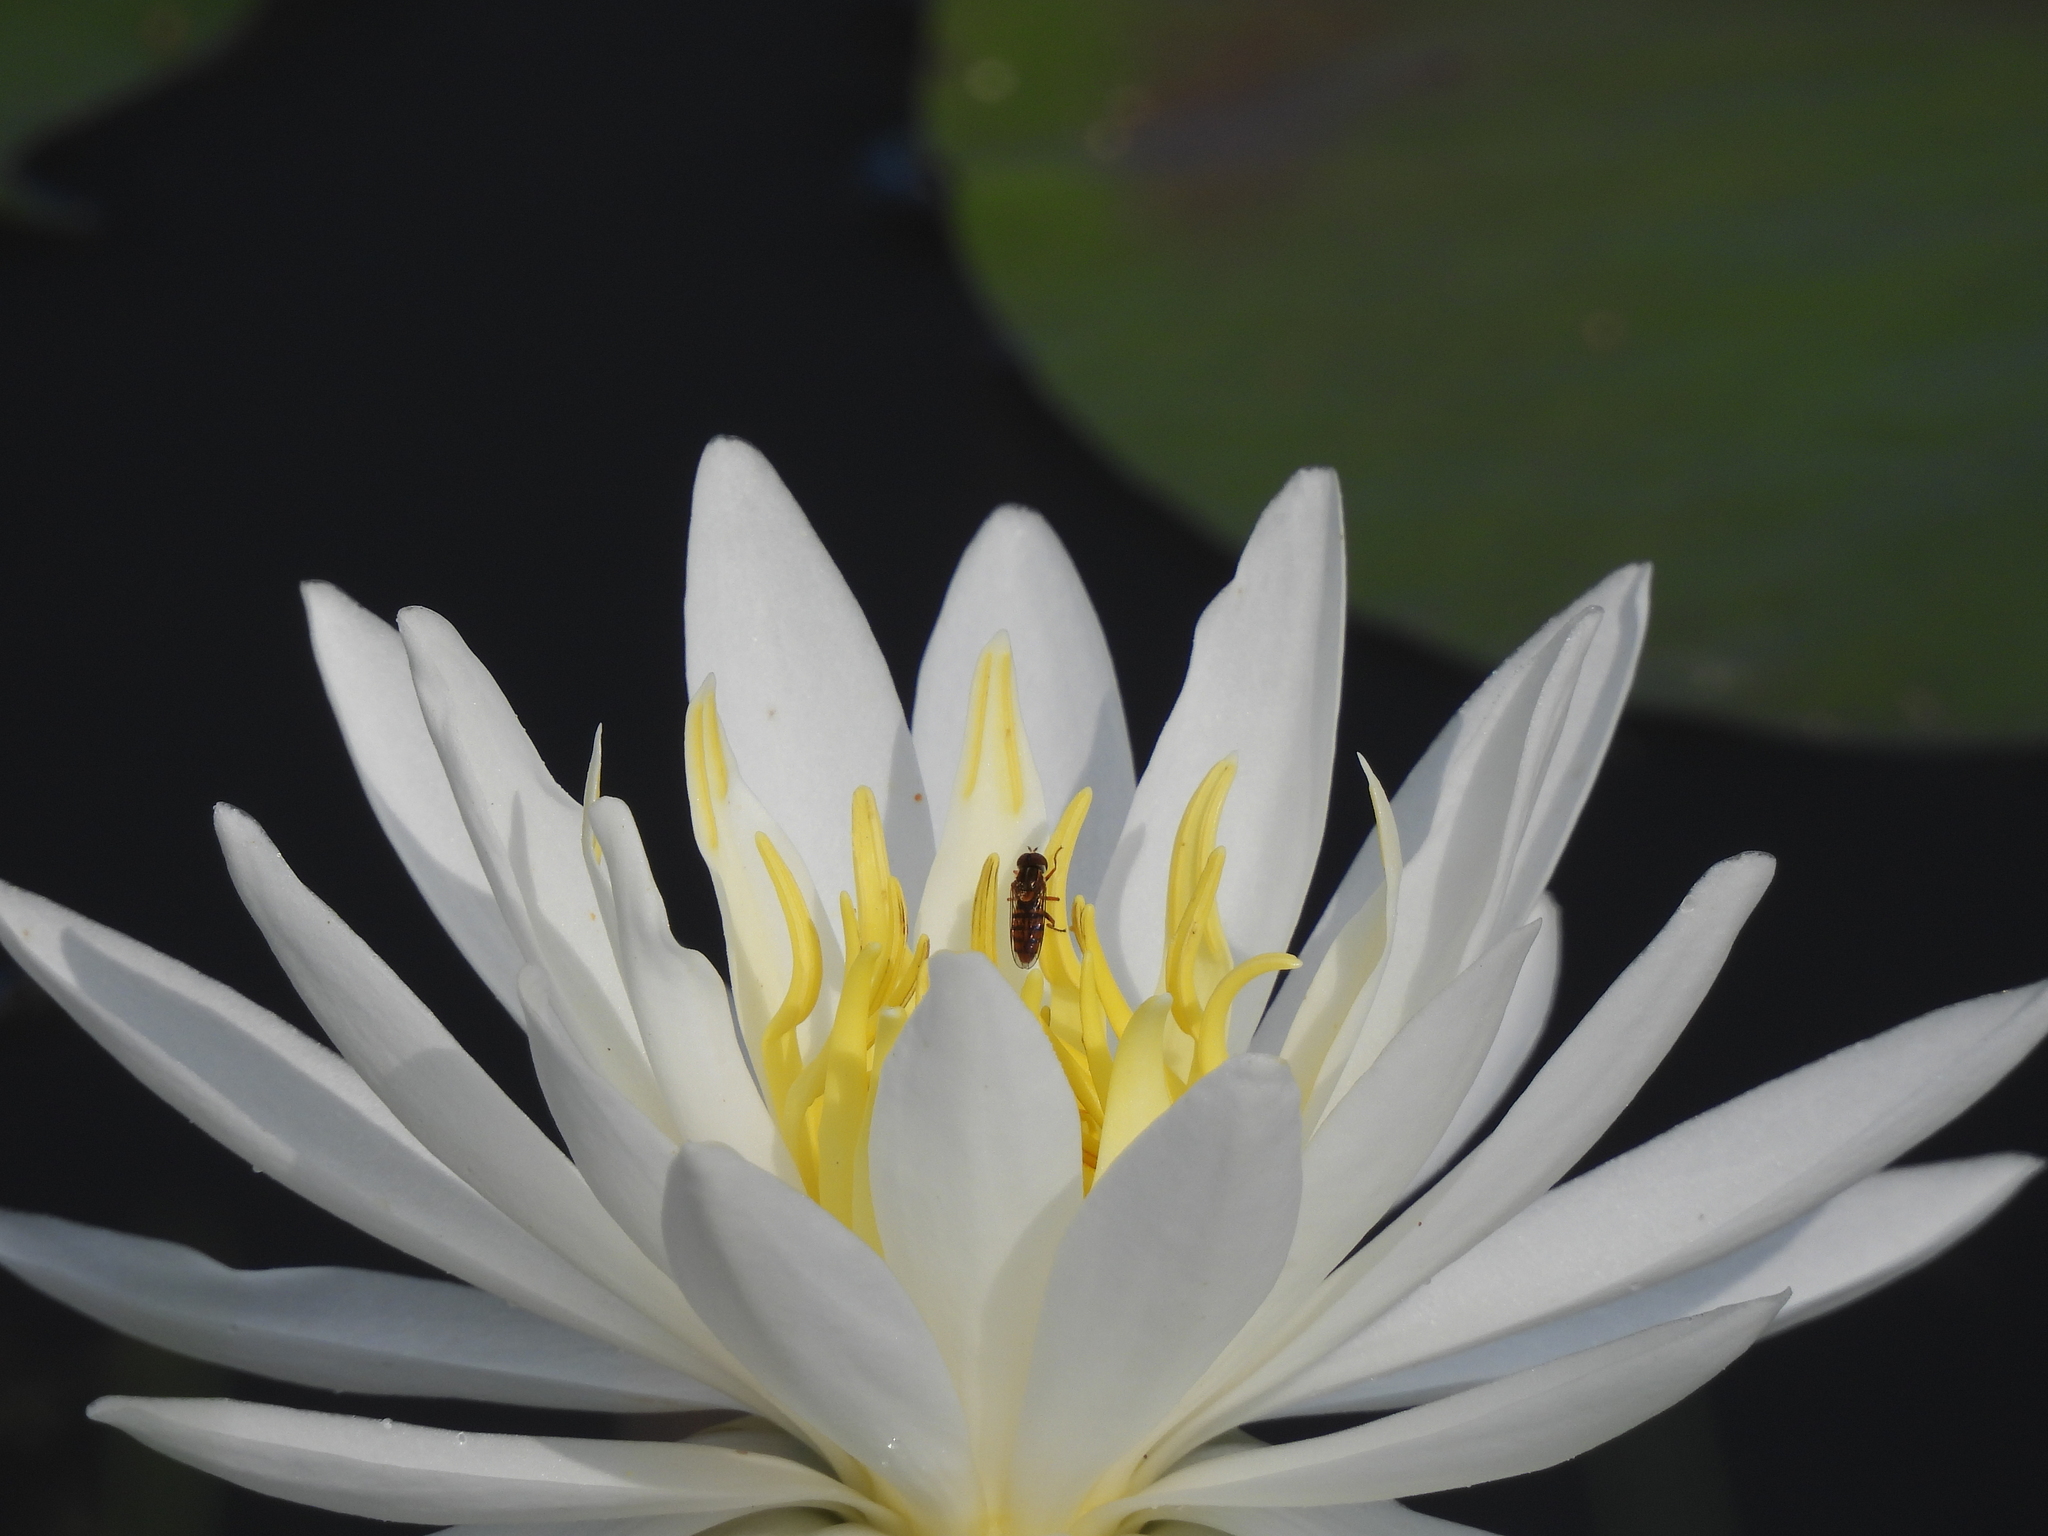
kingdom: Animalia
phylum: Arthropoda
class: Insecta
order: Diptera
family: Syrphidae
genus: Toxomerus
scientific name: Toxomerus jussiaeae
